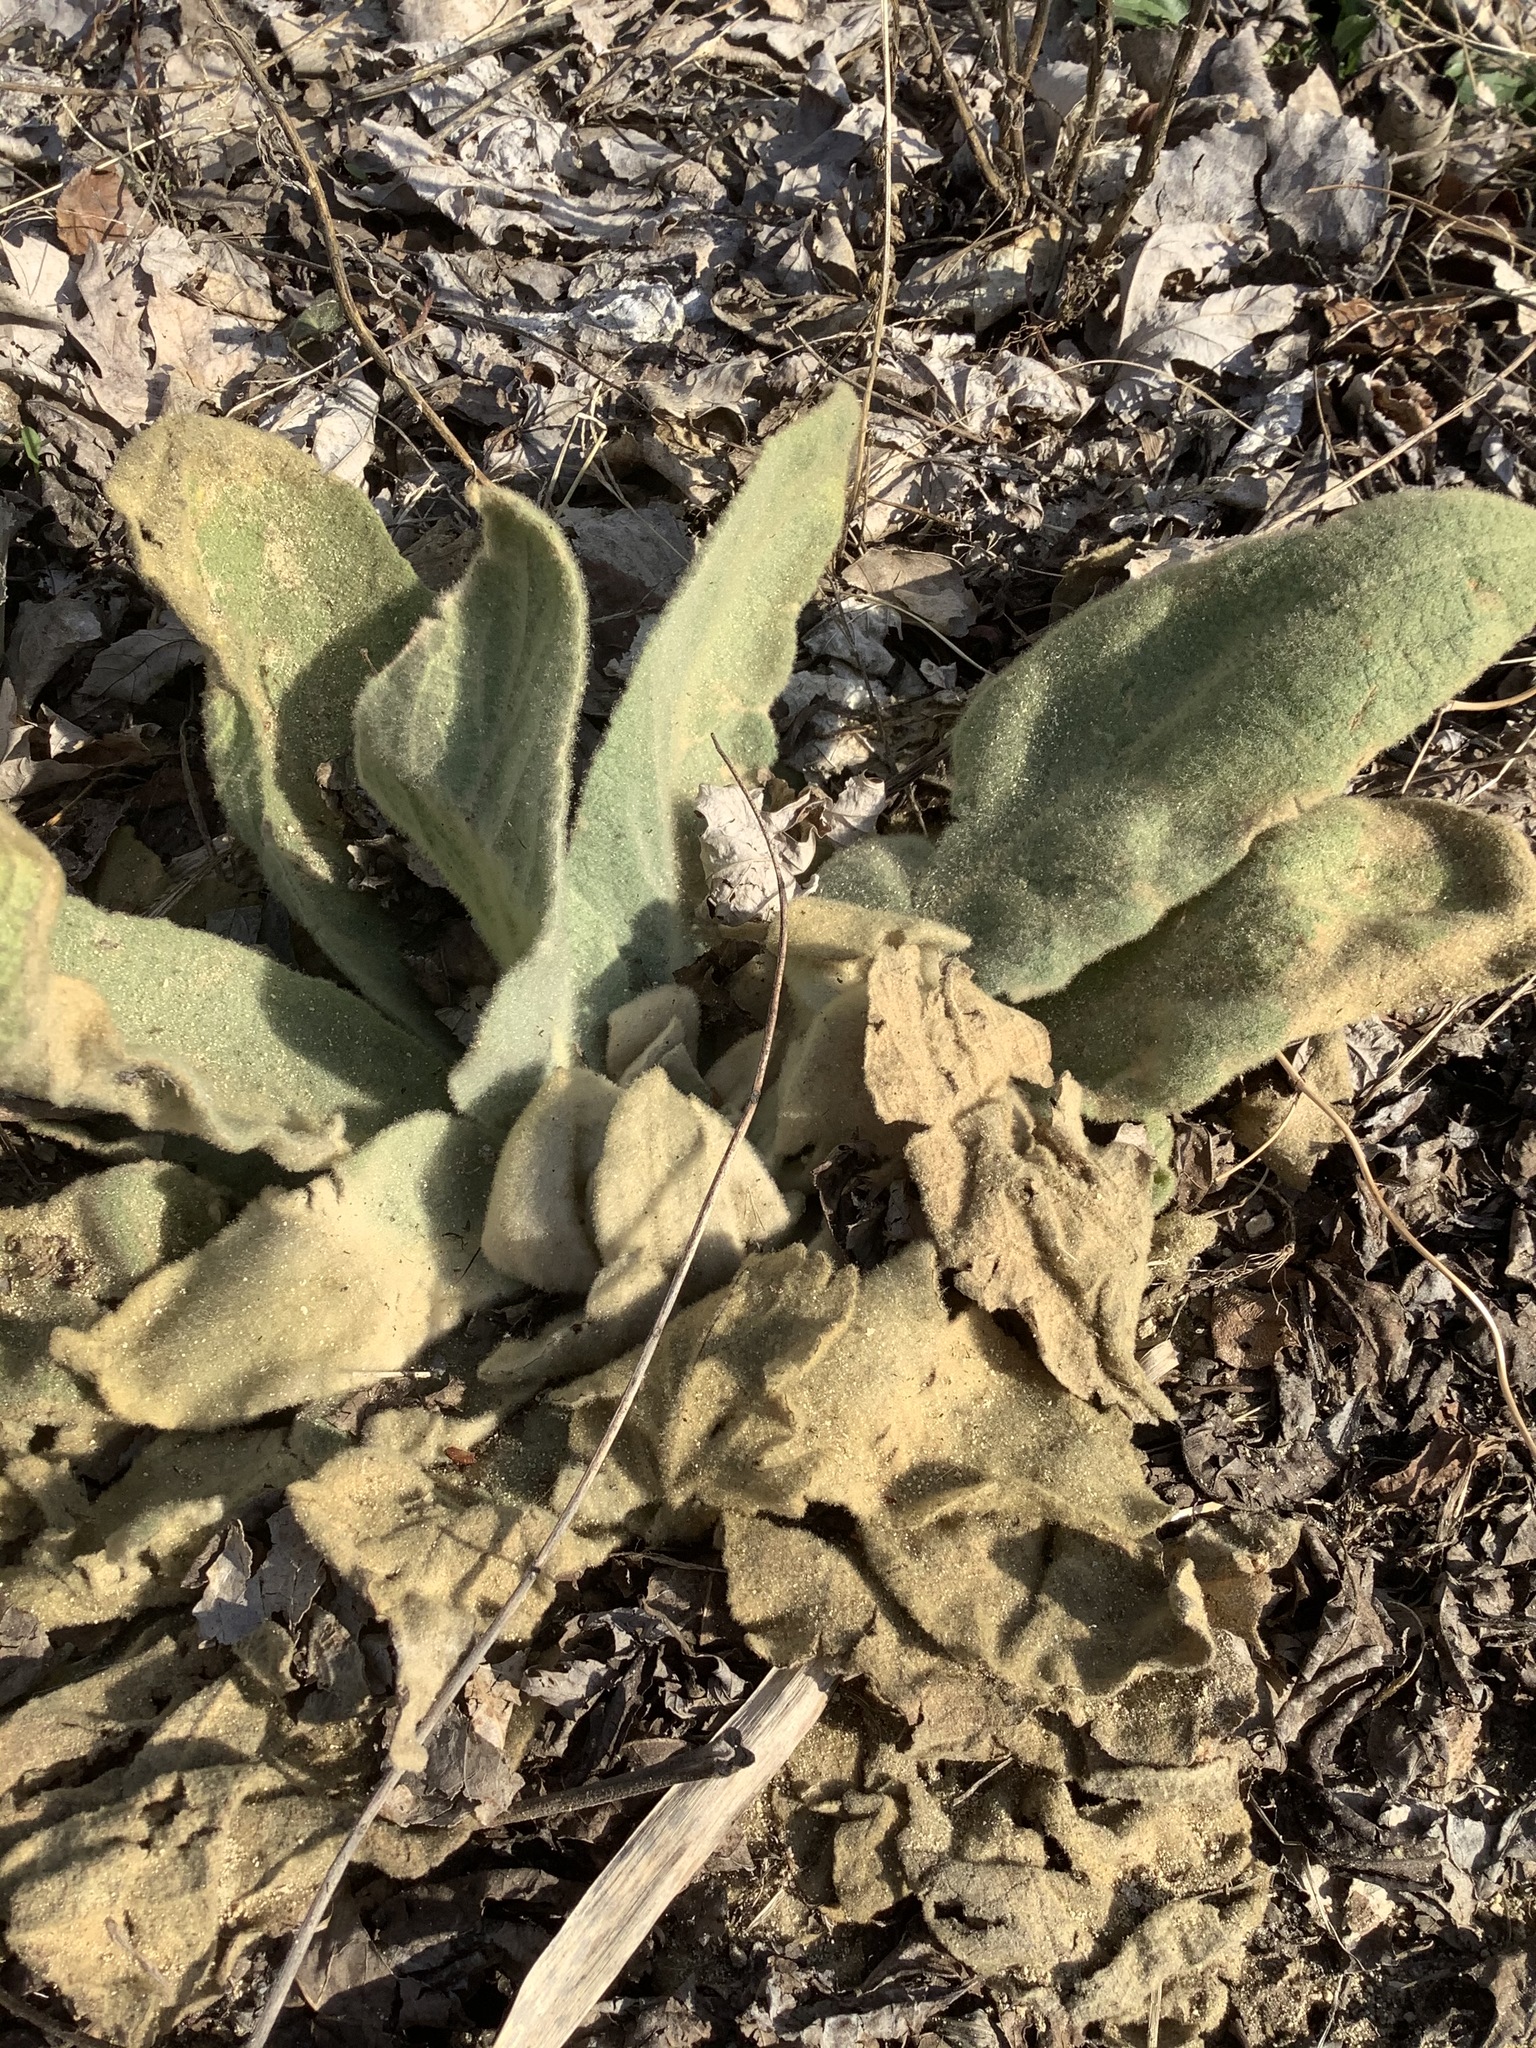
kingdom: Plantae
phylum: Tracheophyta
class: Magnoliopsida
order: Lamiales
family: Scrophulariaceae
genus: Verbascum
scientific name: Verbascum thapsus
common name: Common mullein
